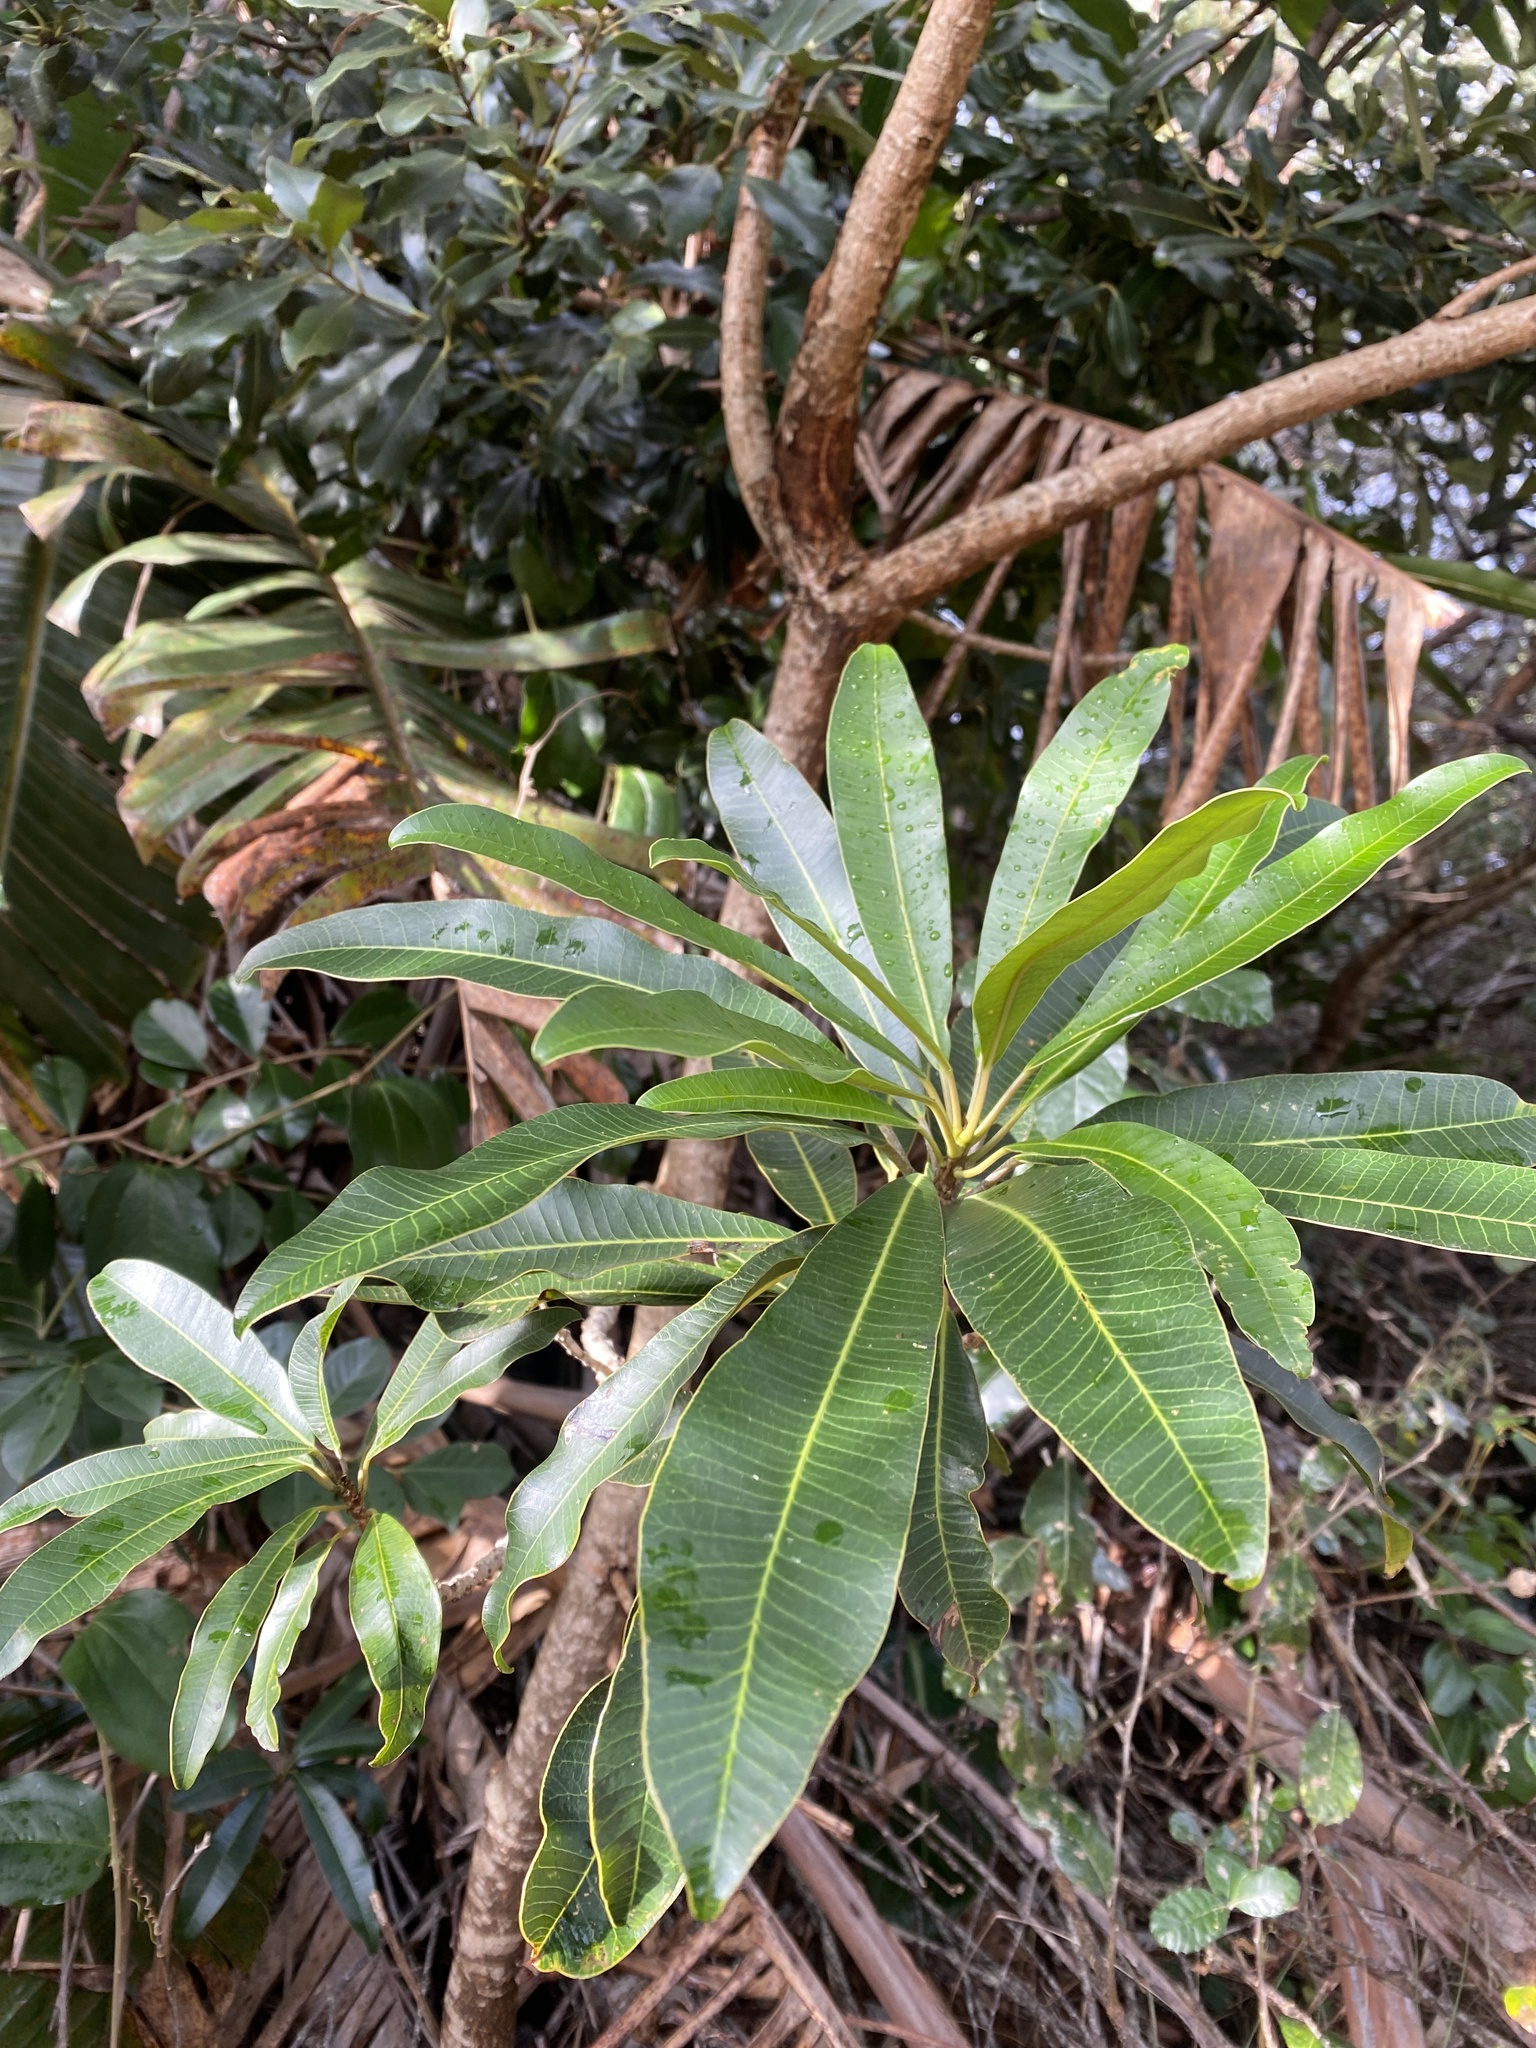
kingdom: Plantae
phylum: Tracheophyta
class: Magnoliopsida
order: Sapindales
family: Anacardiaceae
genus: Protorhus
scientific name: Protorhus longifolia
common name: Red-beech
